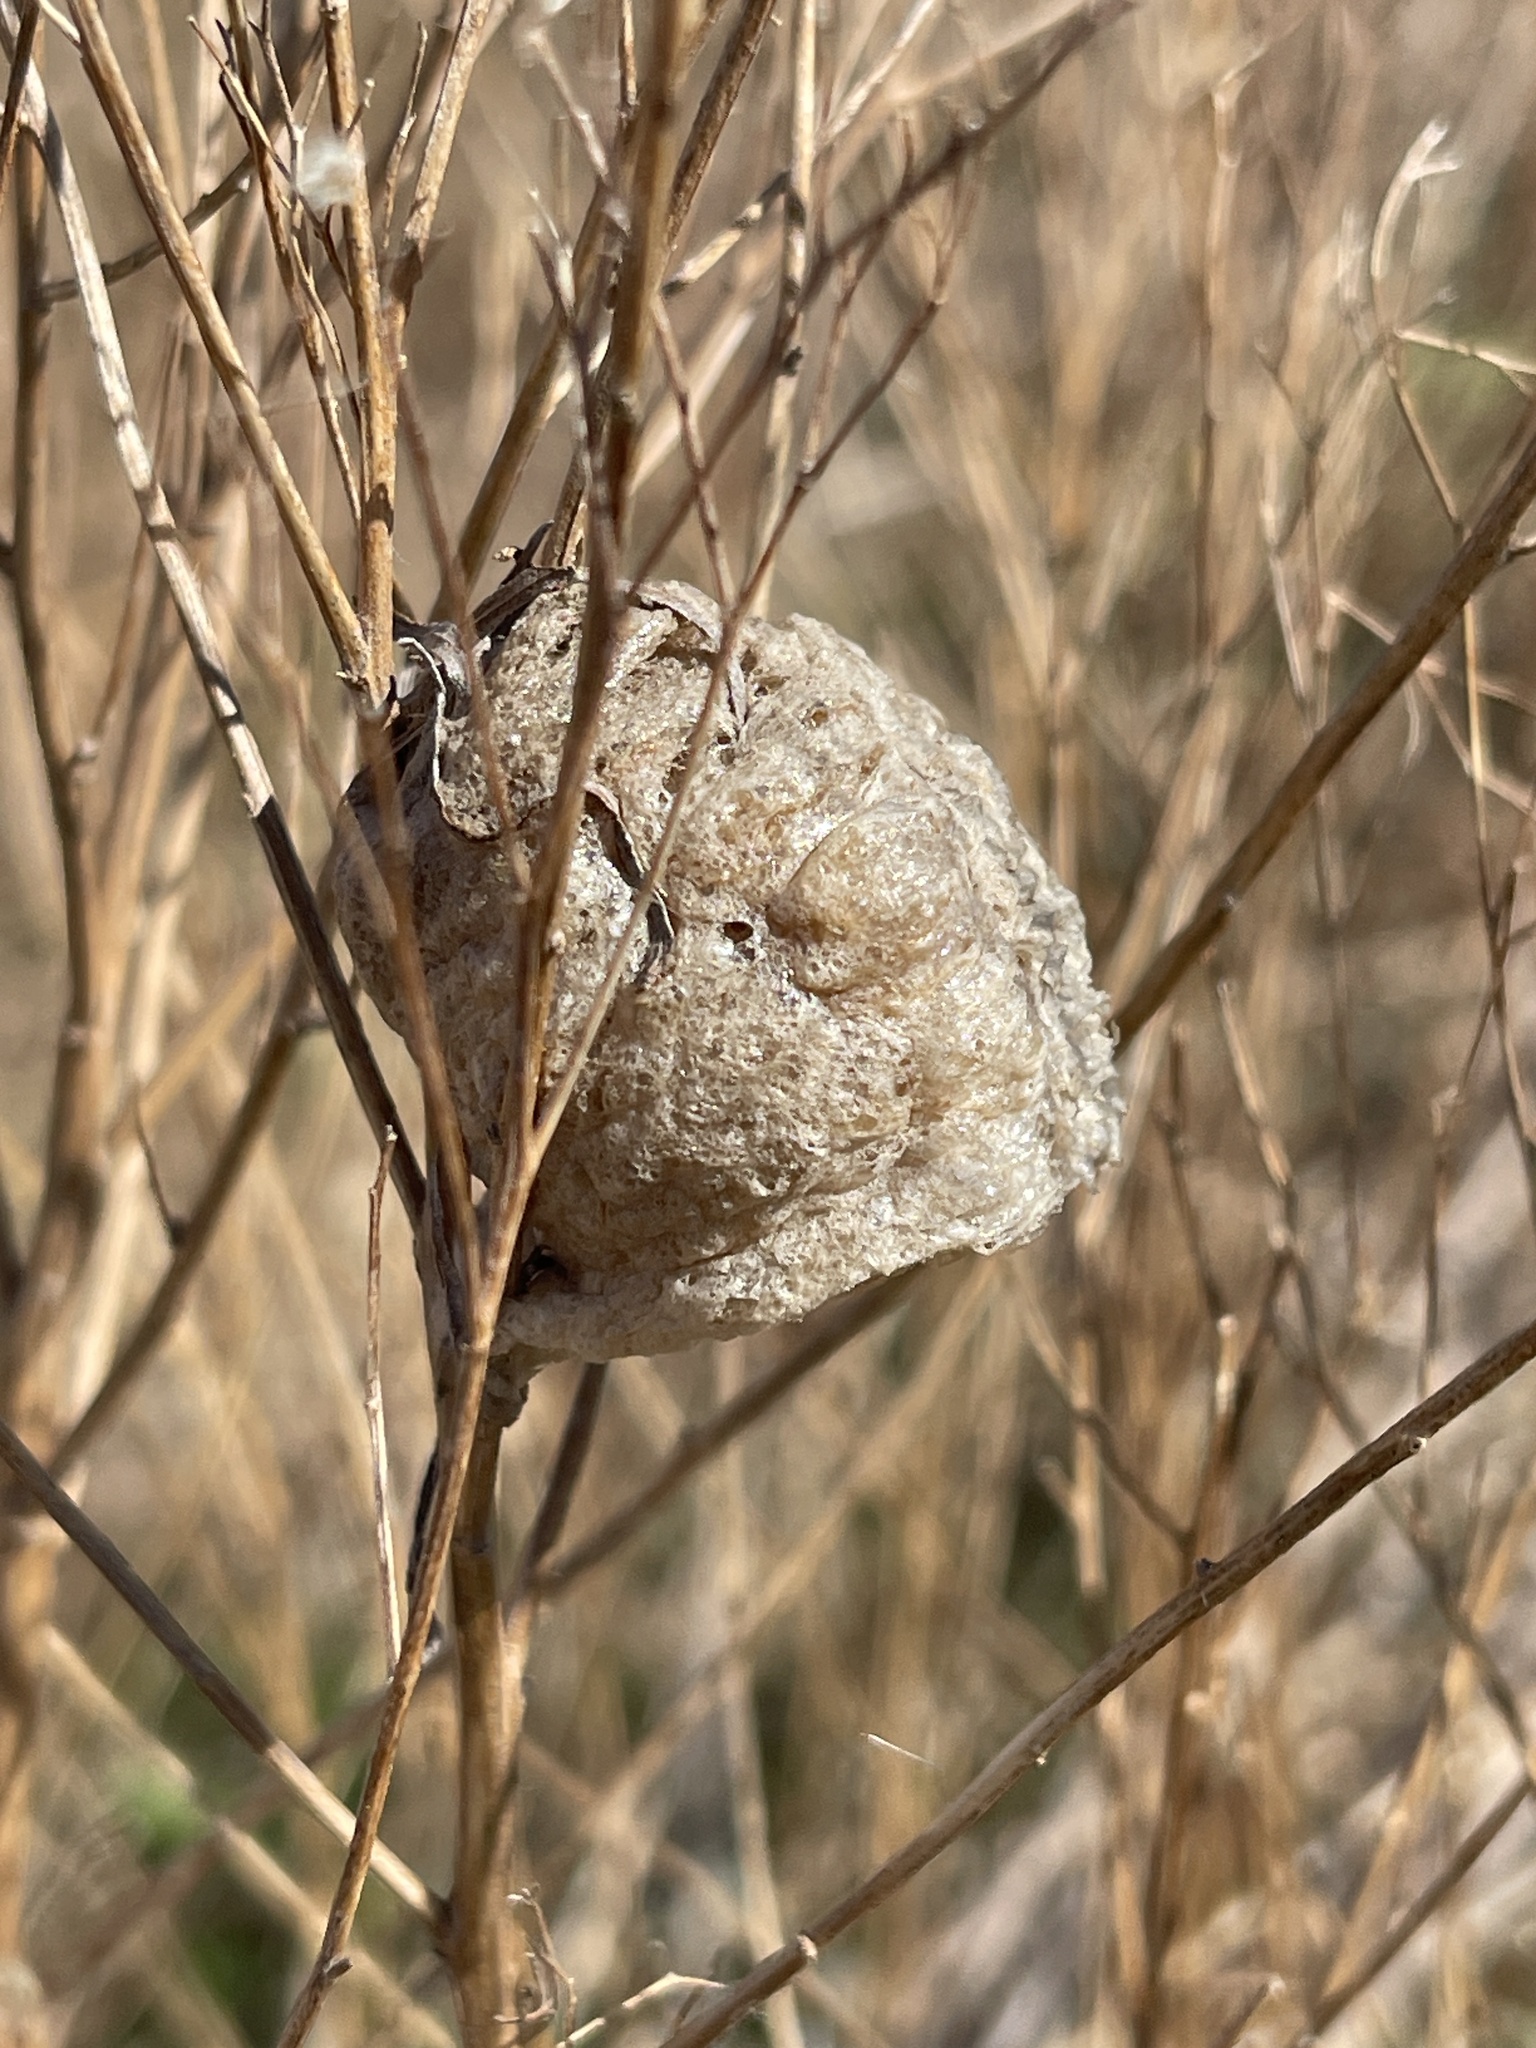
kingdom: Animalia
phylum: Arthropoda
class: Insecta
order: Mantodea
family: Mantidae
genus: Tenodera
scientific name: Tenodera sinensis
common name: Chinese mantis
